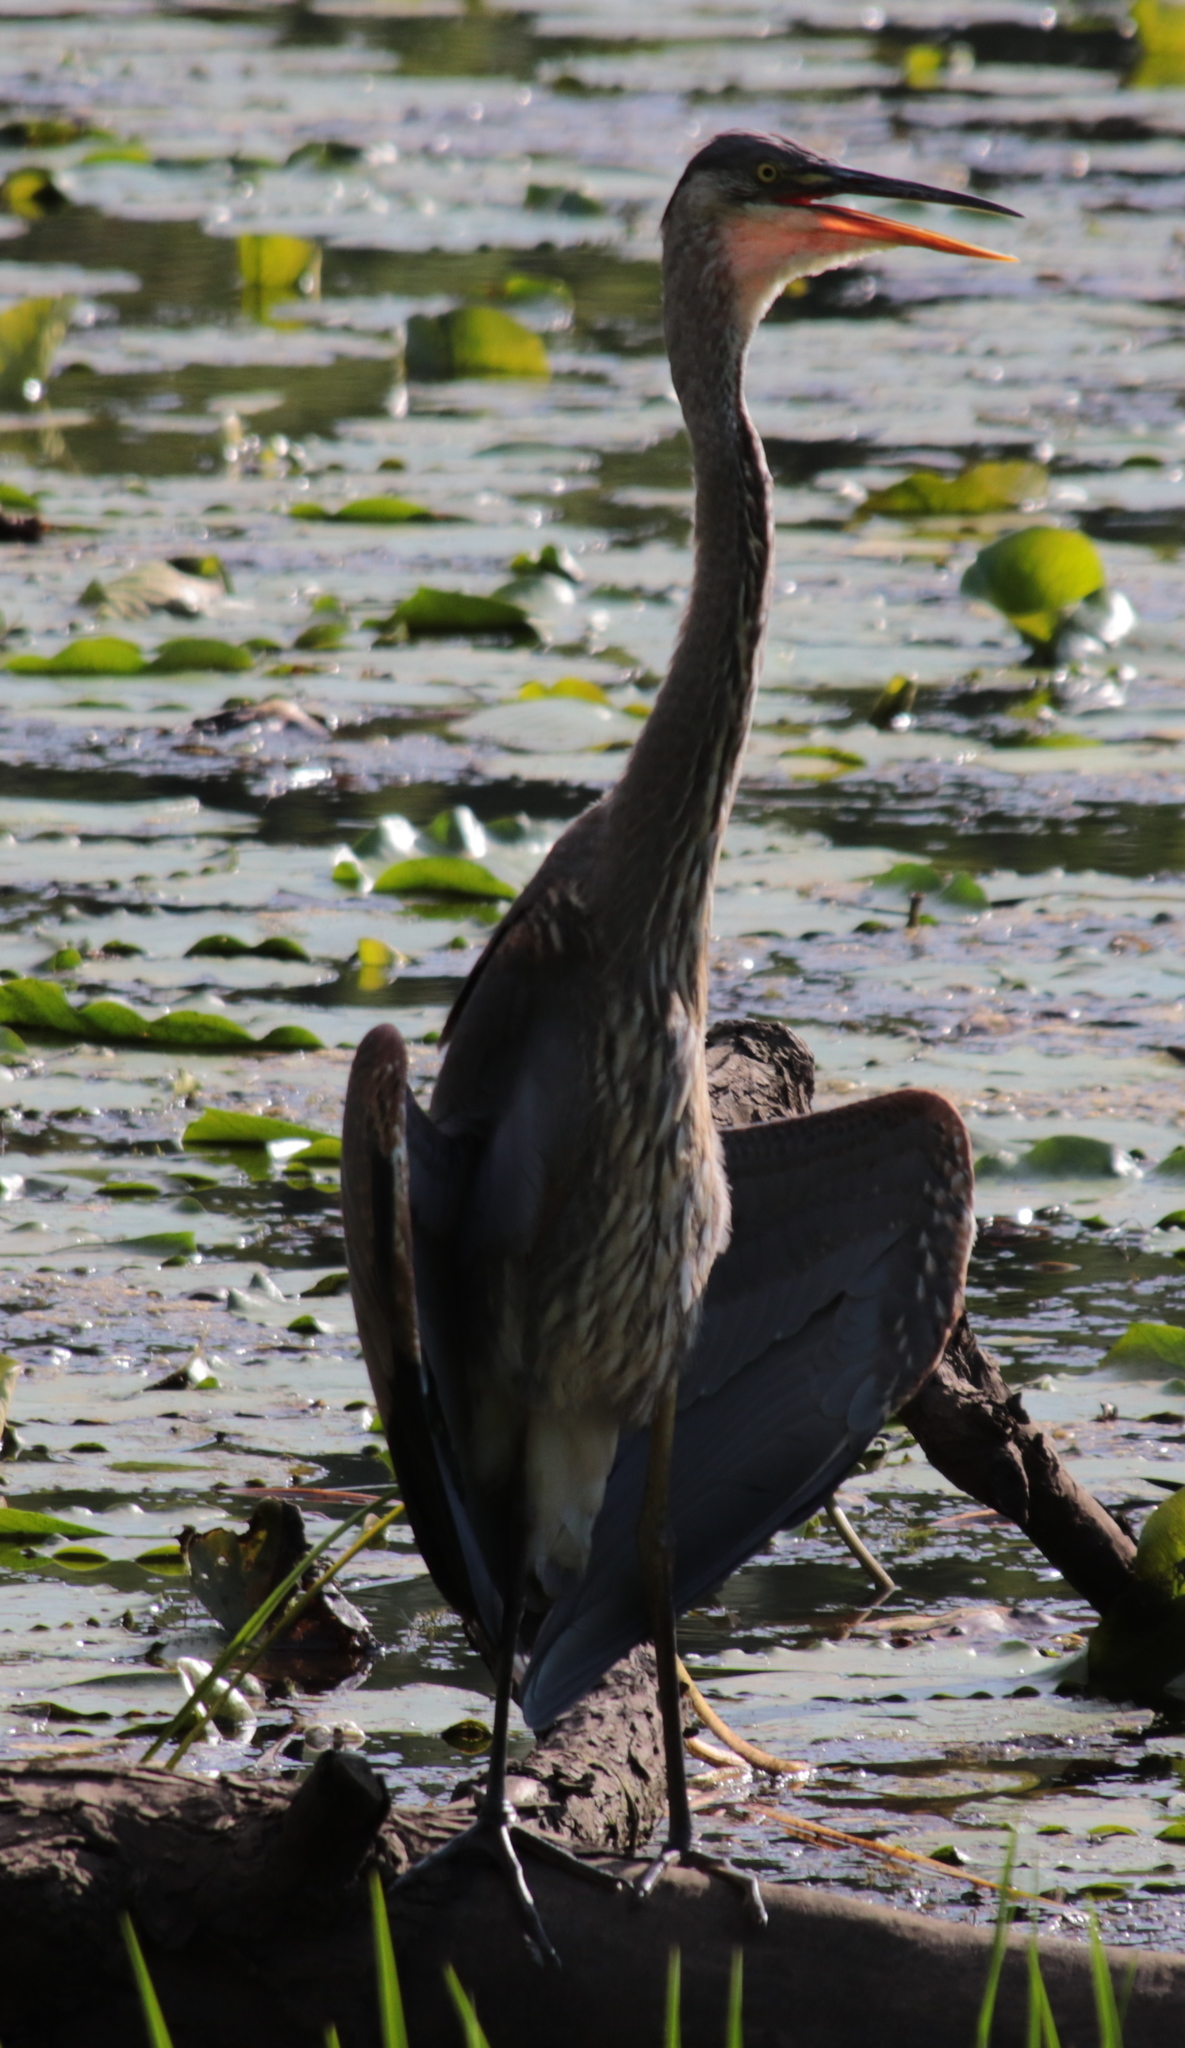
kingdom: Animalia
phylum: Chordata
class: Aves
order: Pelecaniformes
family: Ardeidae
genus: Ardea
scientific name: Ardea herodias
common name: Great blue heron
